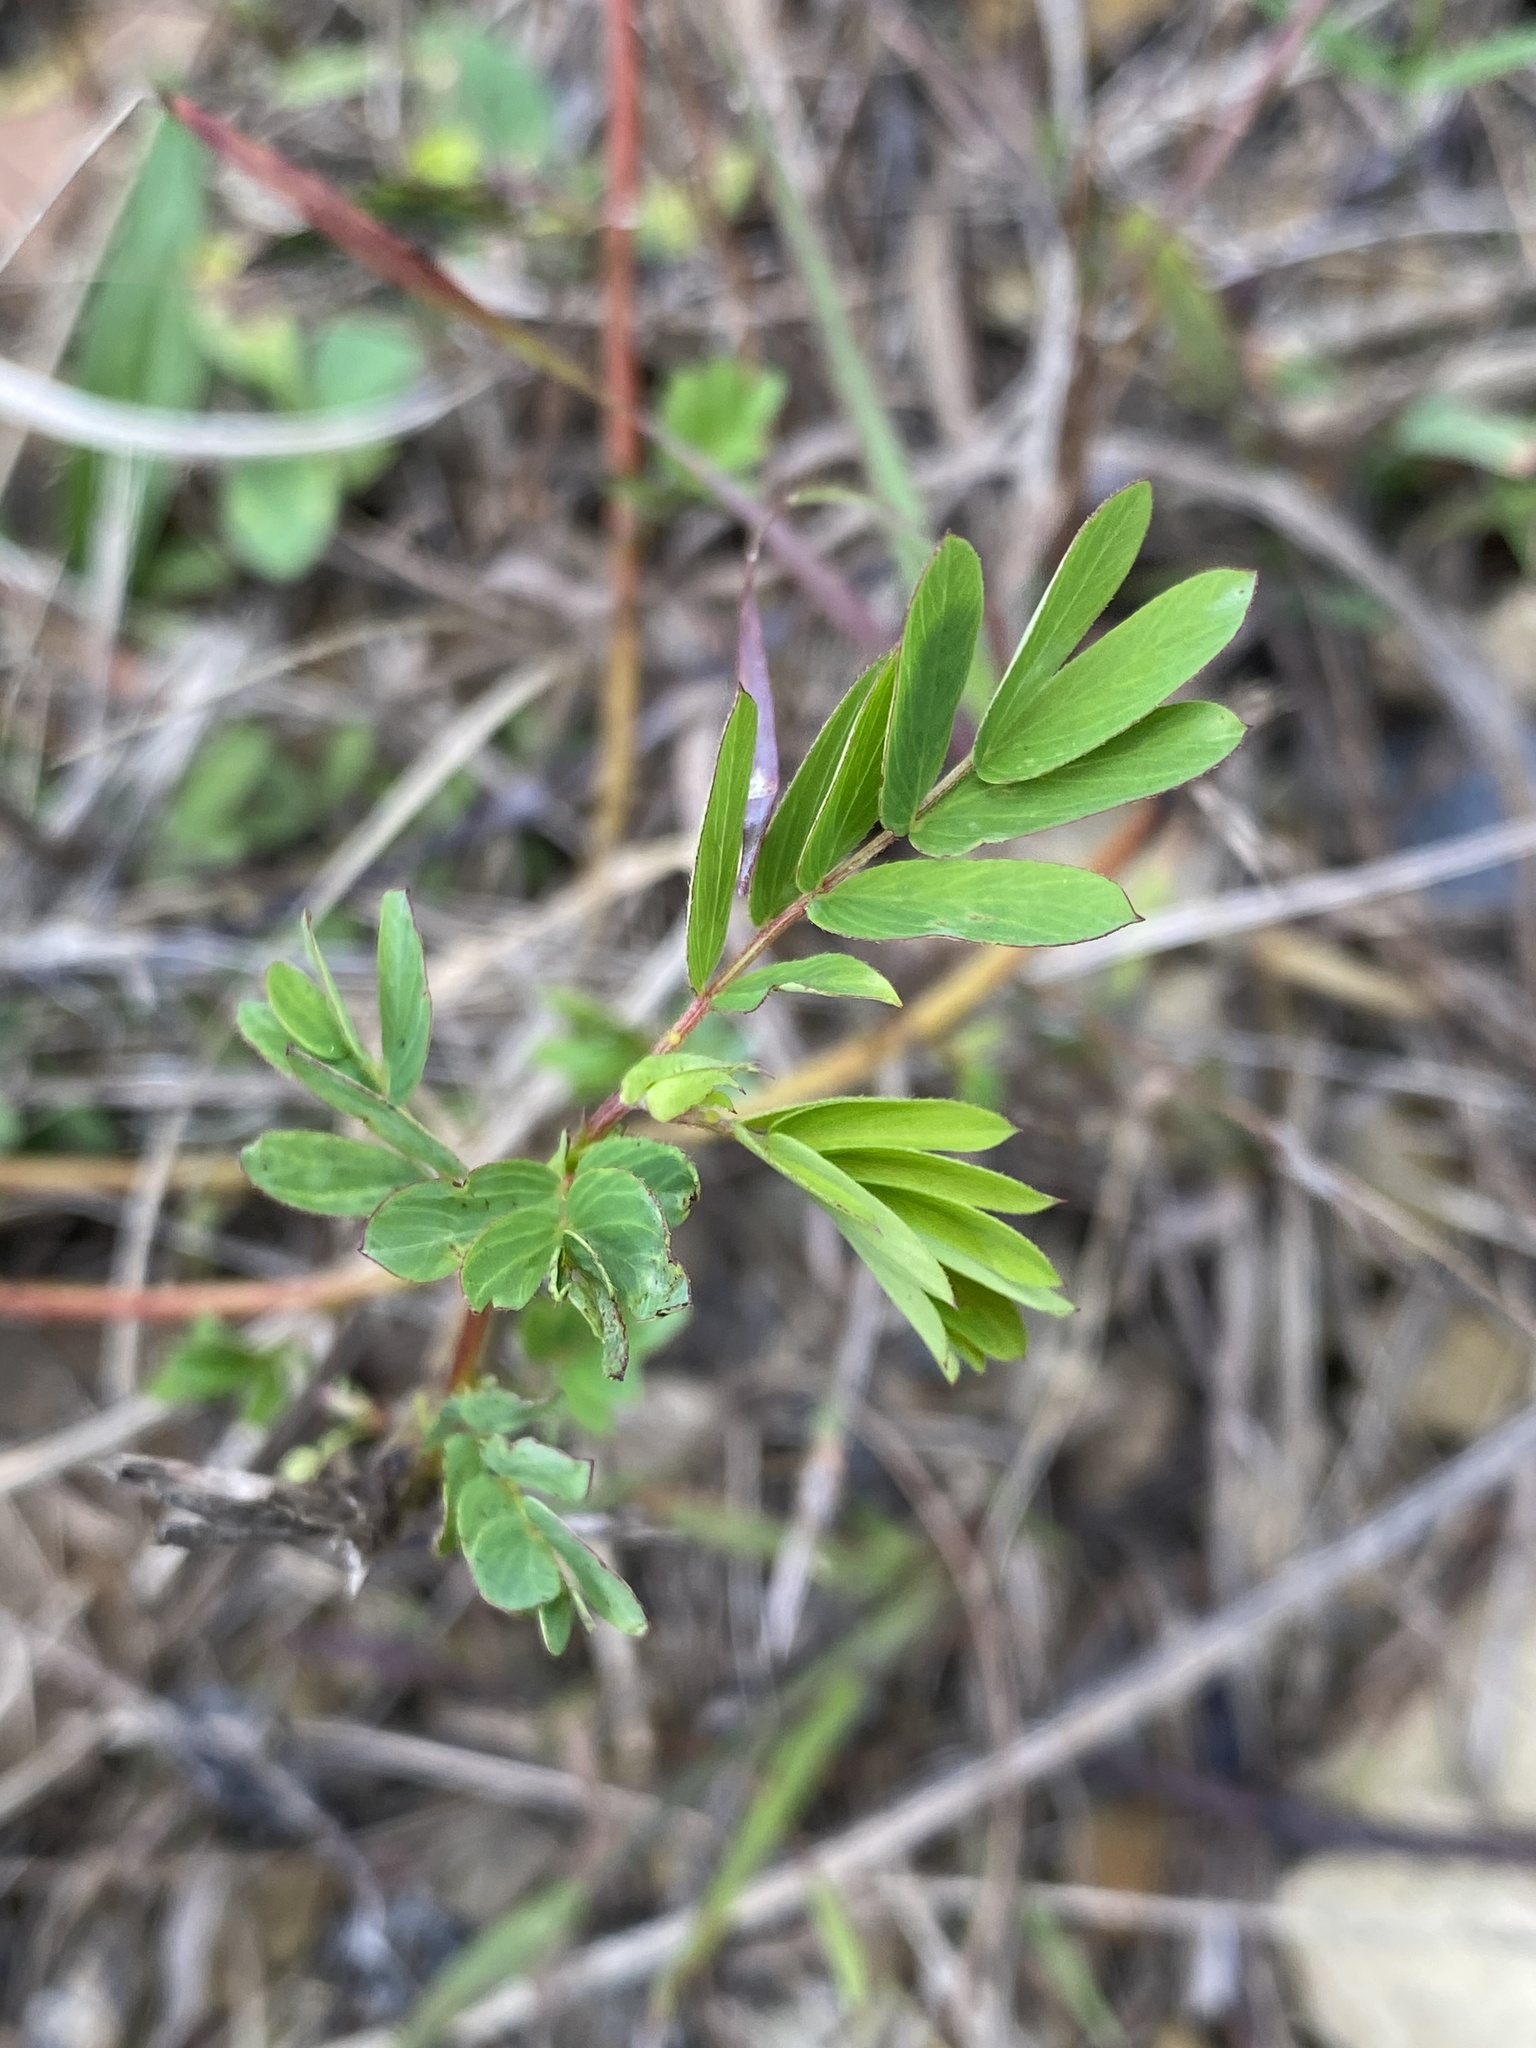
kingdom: Plantae
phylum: Tracheophyta
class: Magnoliopsida
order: Fabales
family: Fabaceae
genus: Chamaecrista
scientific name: Chamaecrista fasciculata
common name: Golden cassia
